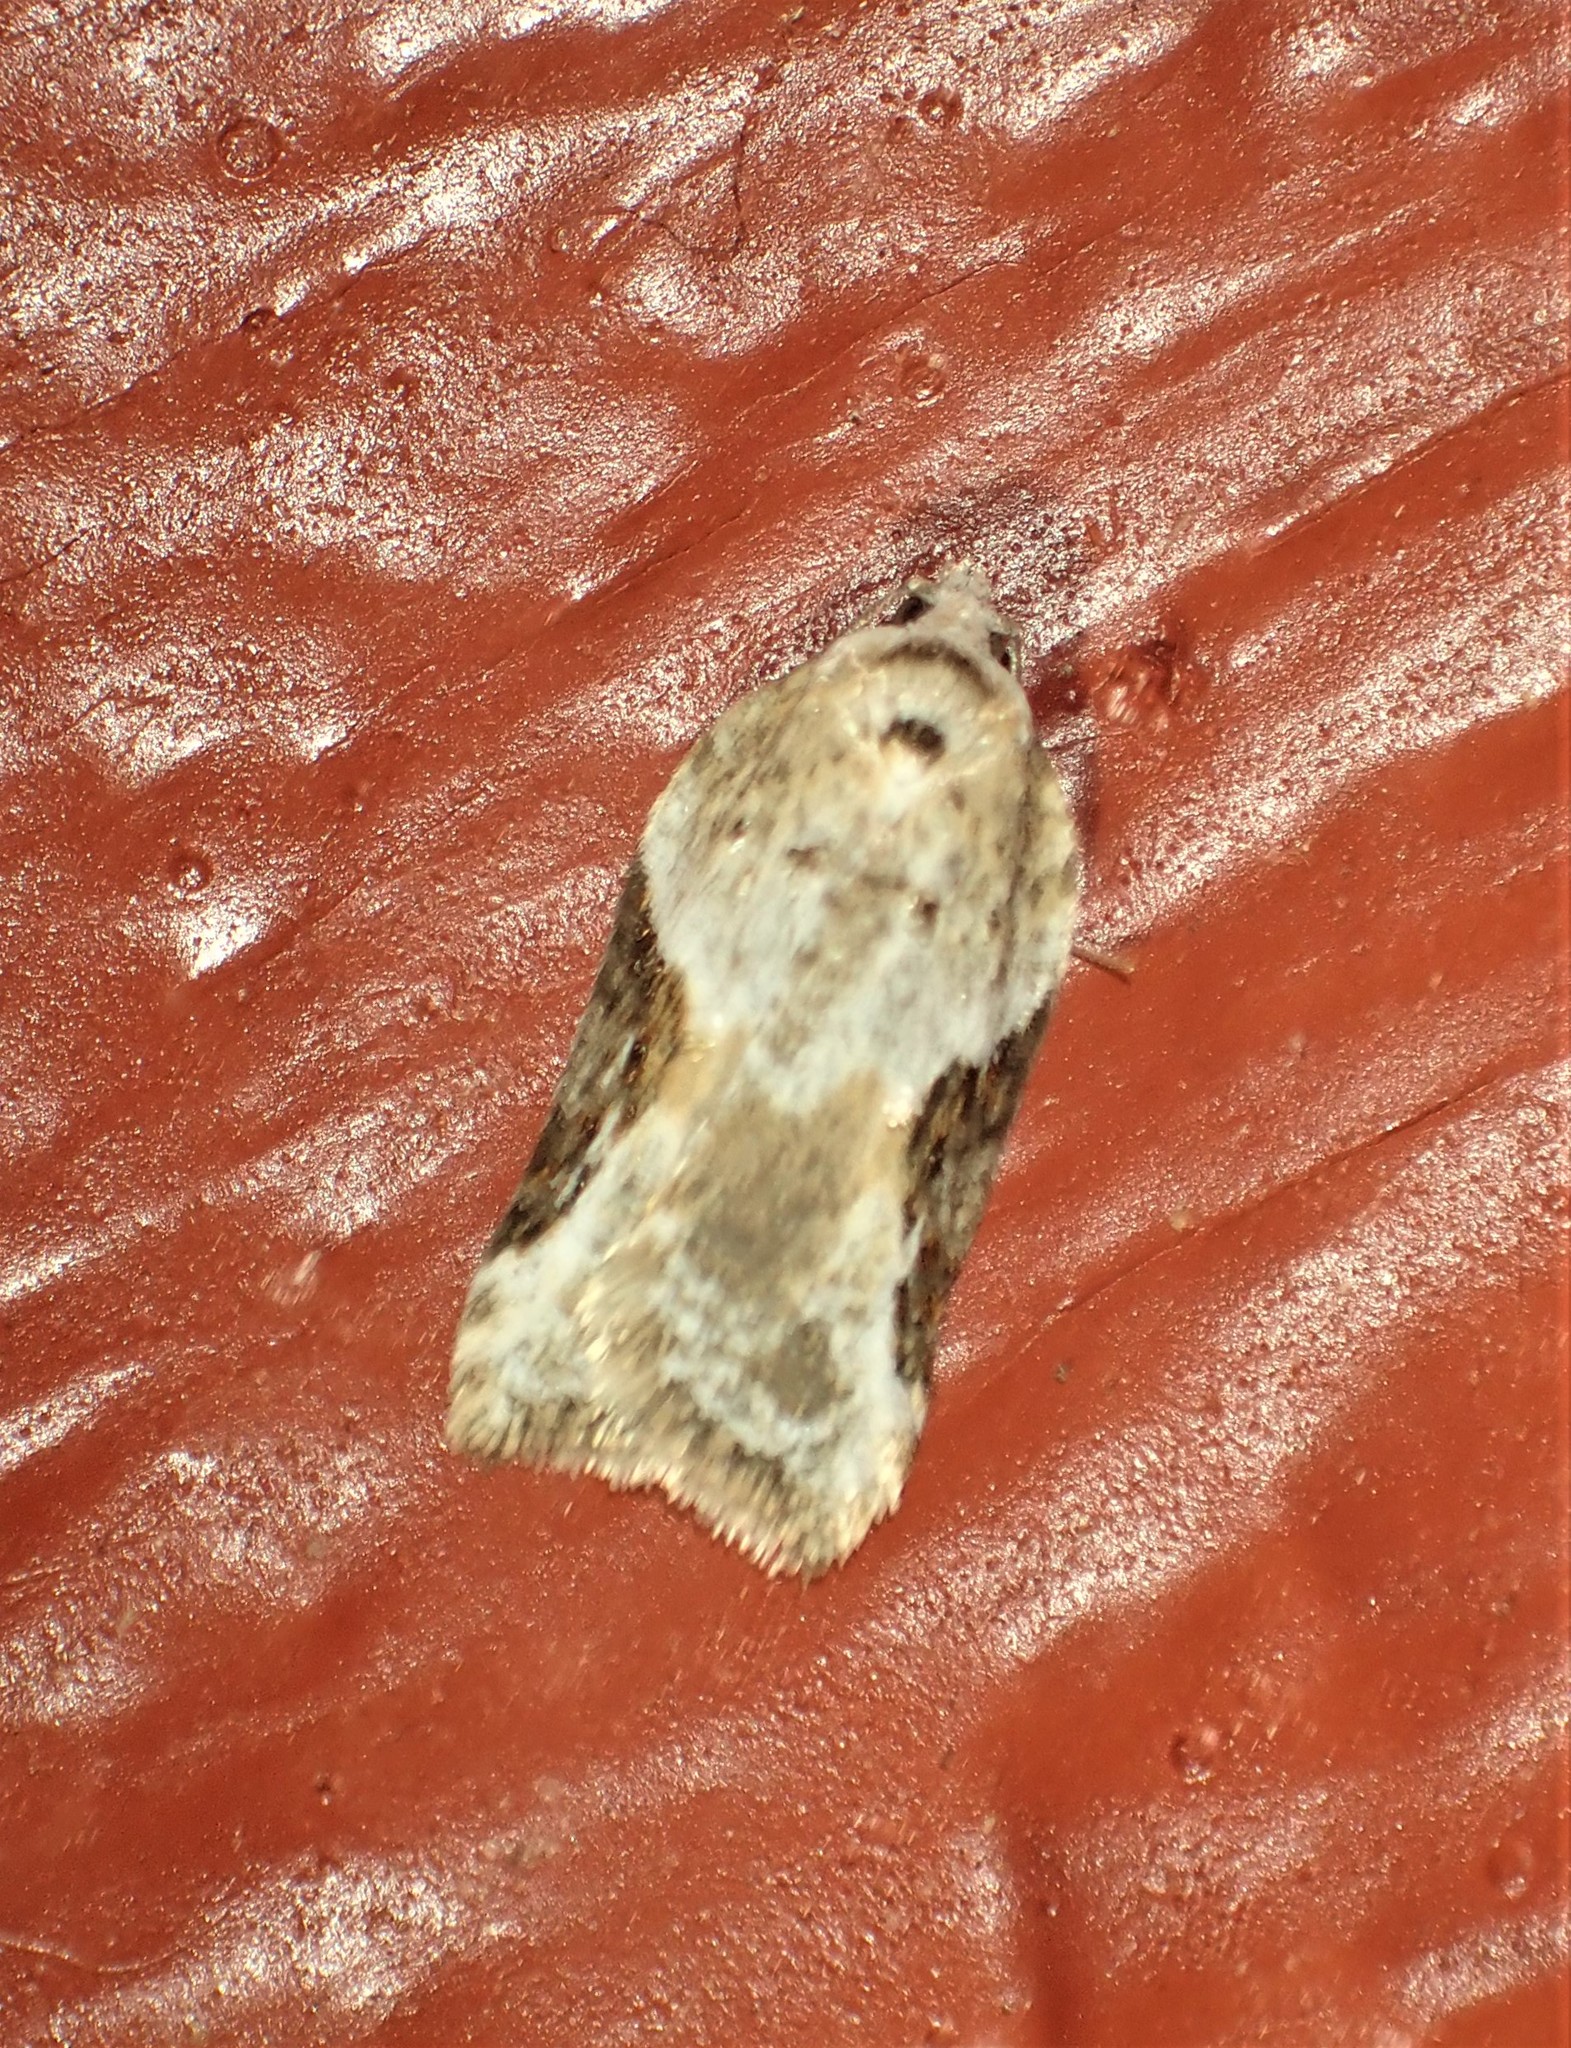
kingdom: Animalia
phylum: Arthropoda
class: Insecta
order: Lepidoptera
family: Tortricidae
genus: Acleris
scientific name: Acleris forbesana
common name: Forbes' acleris moth
